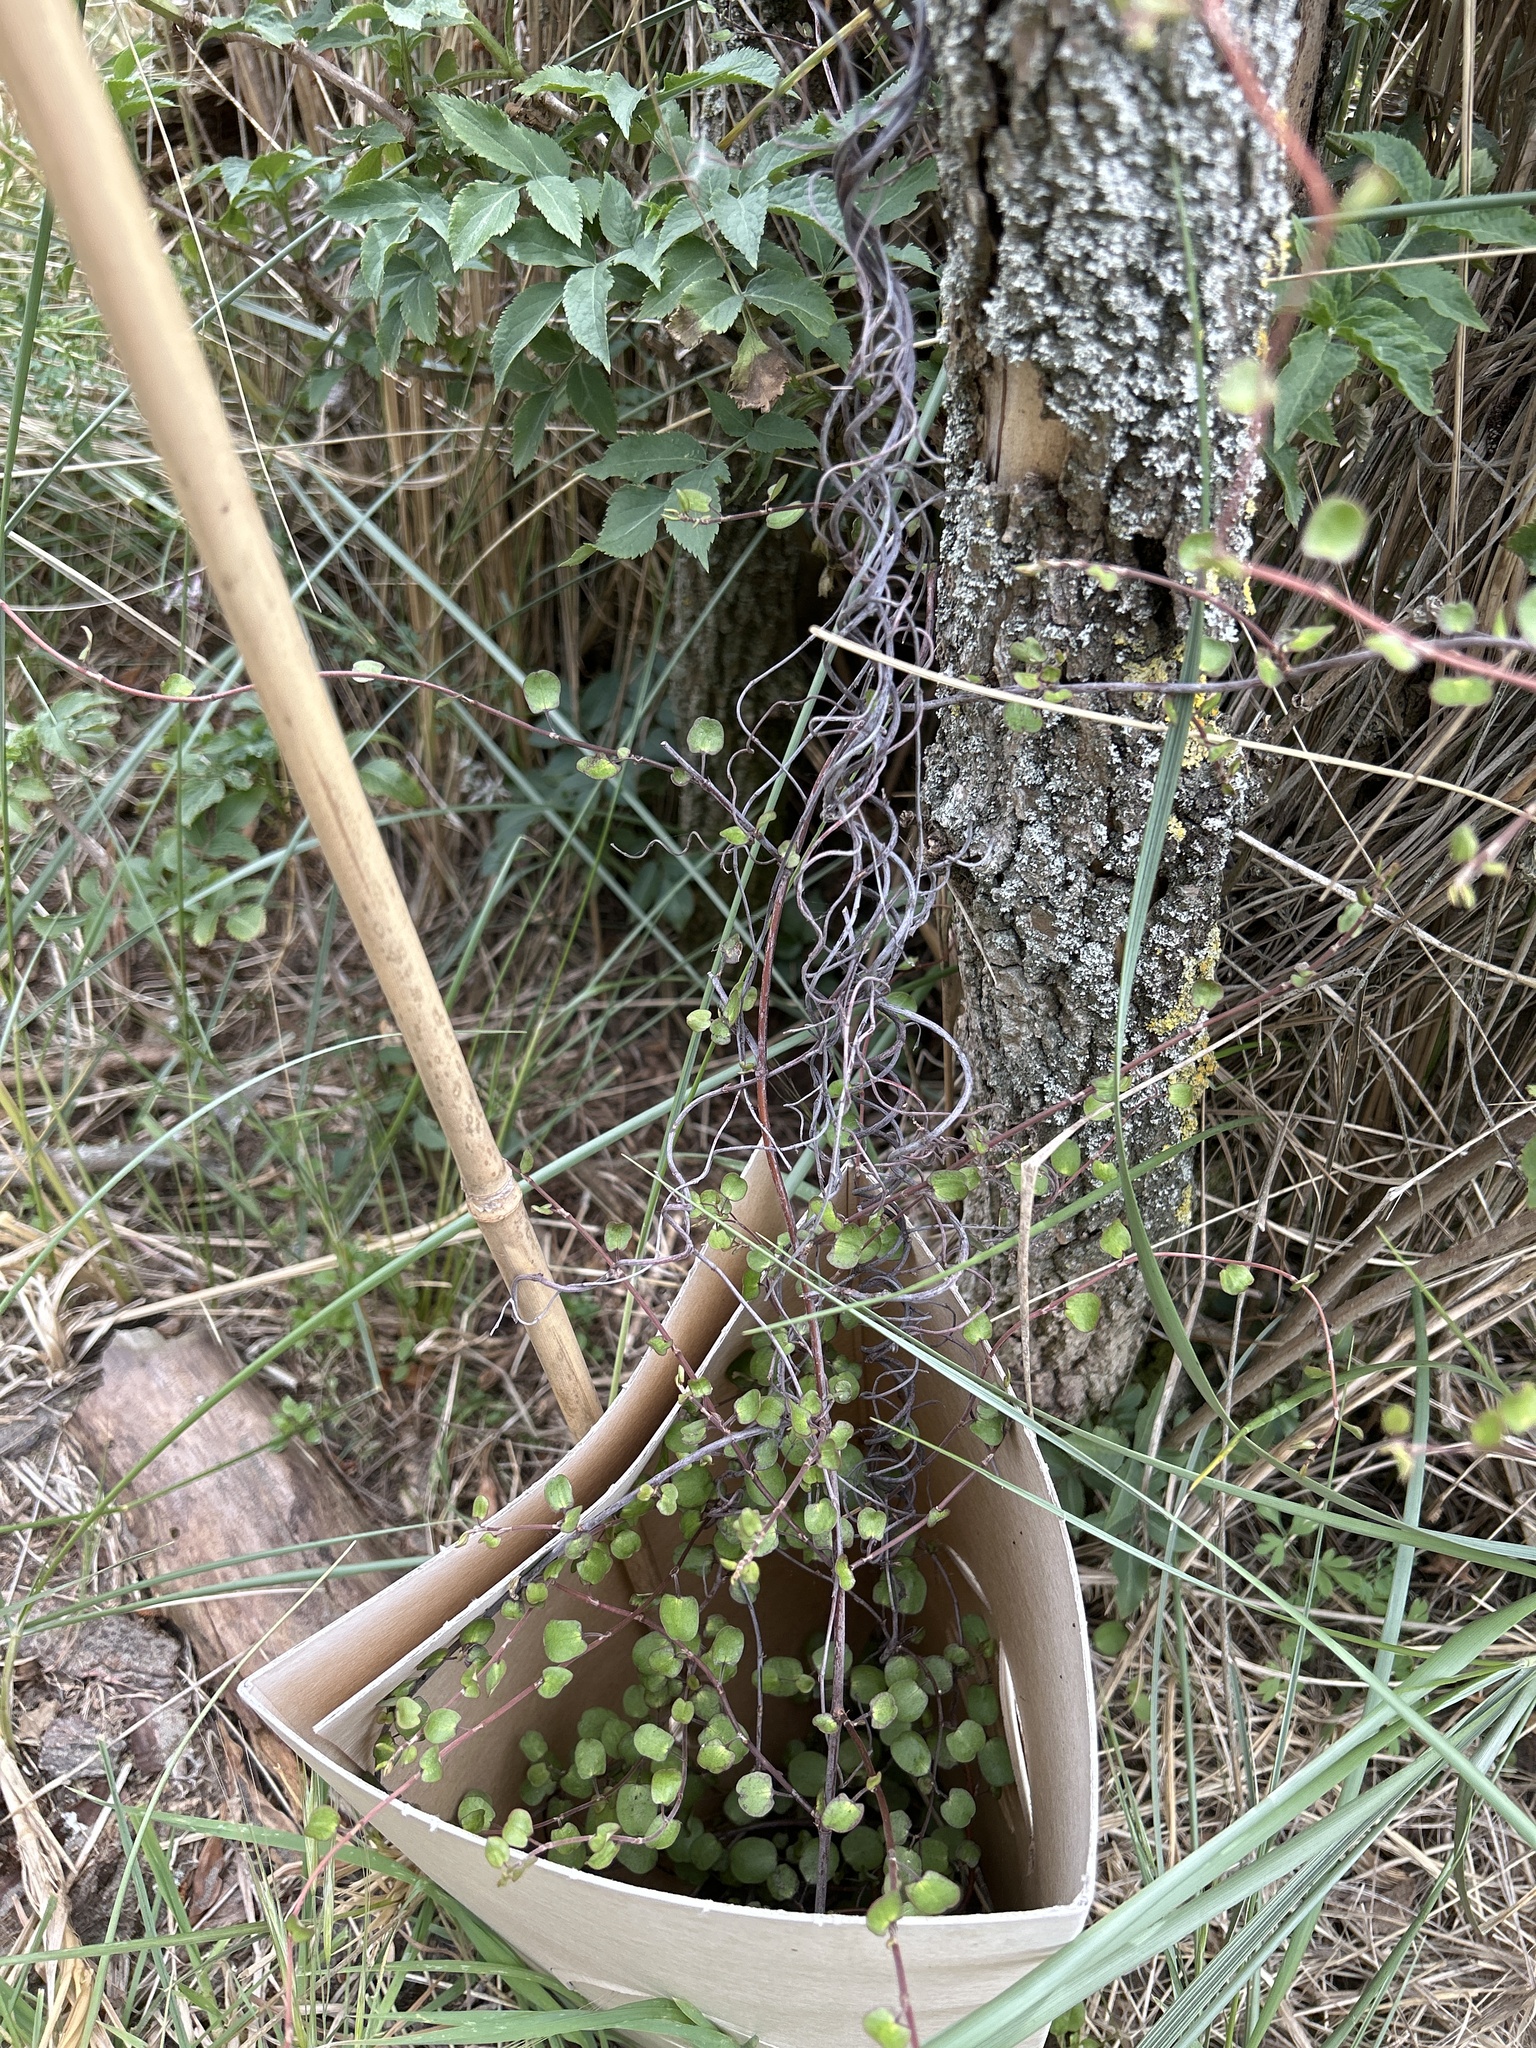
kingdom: Plantae
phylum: Tracheophyta
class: Magnoliopsida
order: Caryophyllales
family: Polygonaceae
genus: Muehlenbeckia
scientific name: Muehlenbeckia complexa
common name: Wireplant
